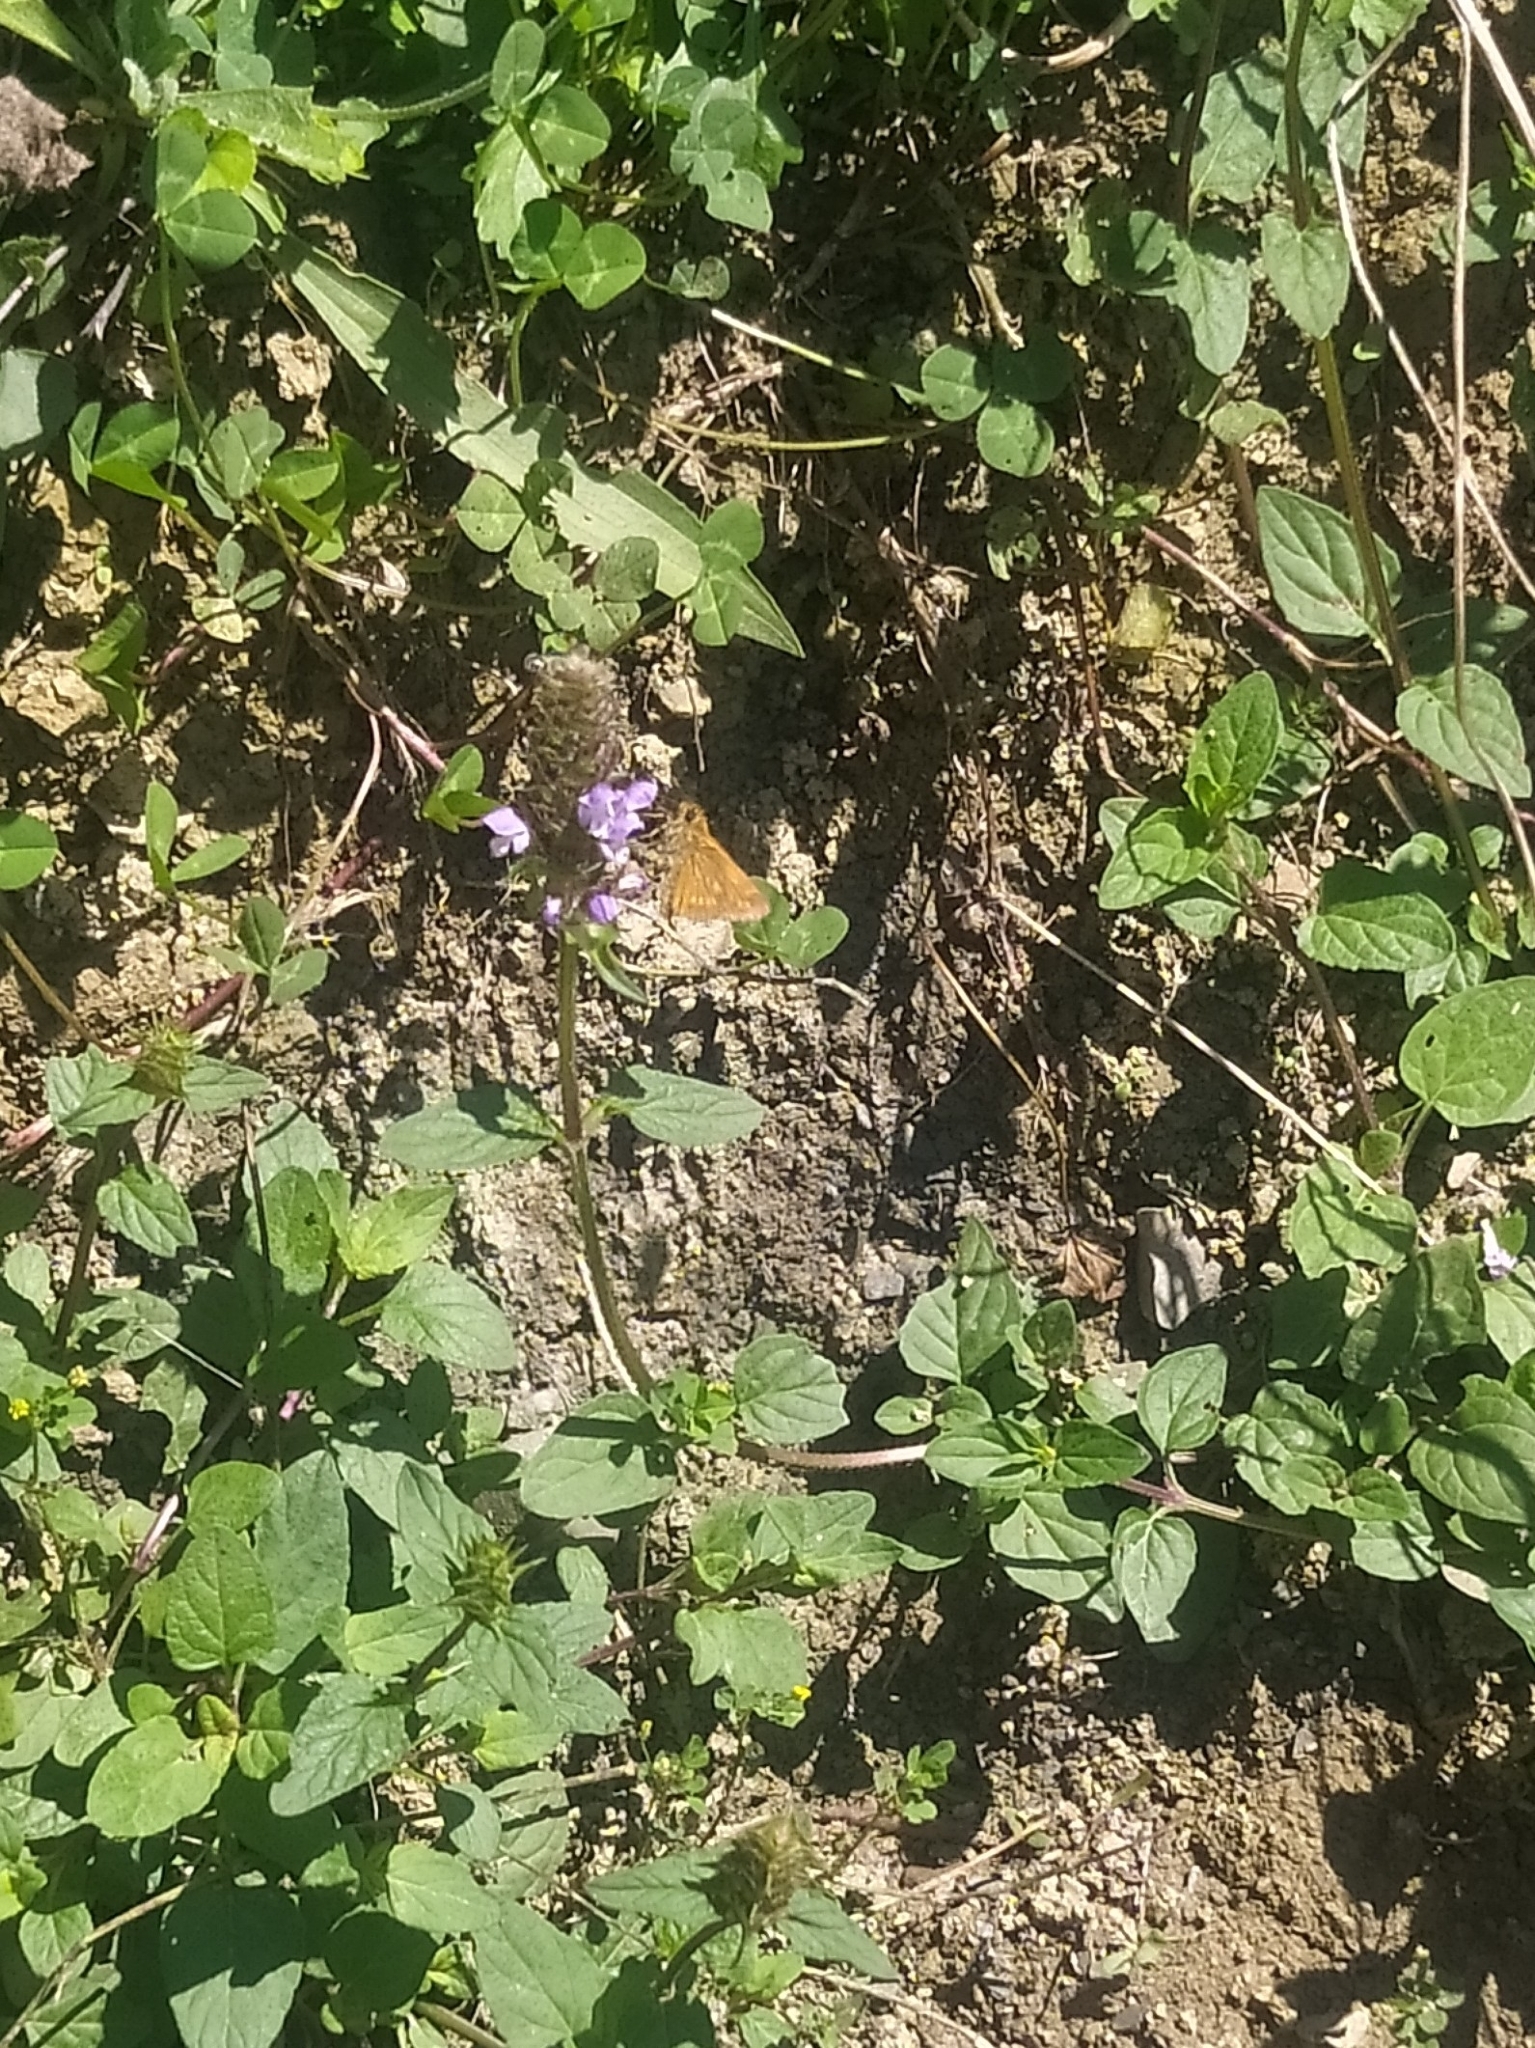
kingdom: Animalia
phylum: Arthropoda
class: Insecta
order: Lepidoptera
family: Hesperiidae
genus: Ochlodes
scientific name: Ochlodes venata
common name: Large skipper
